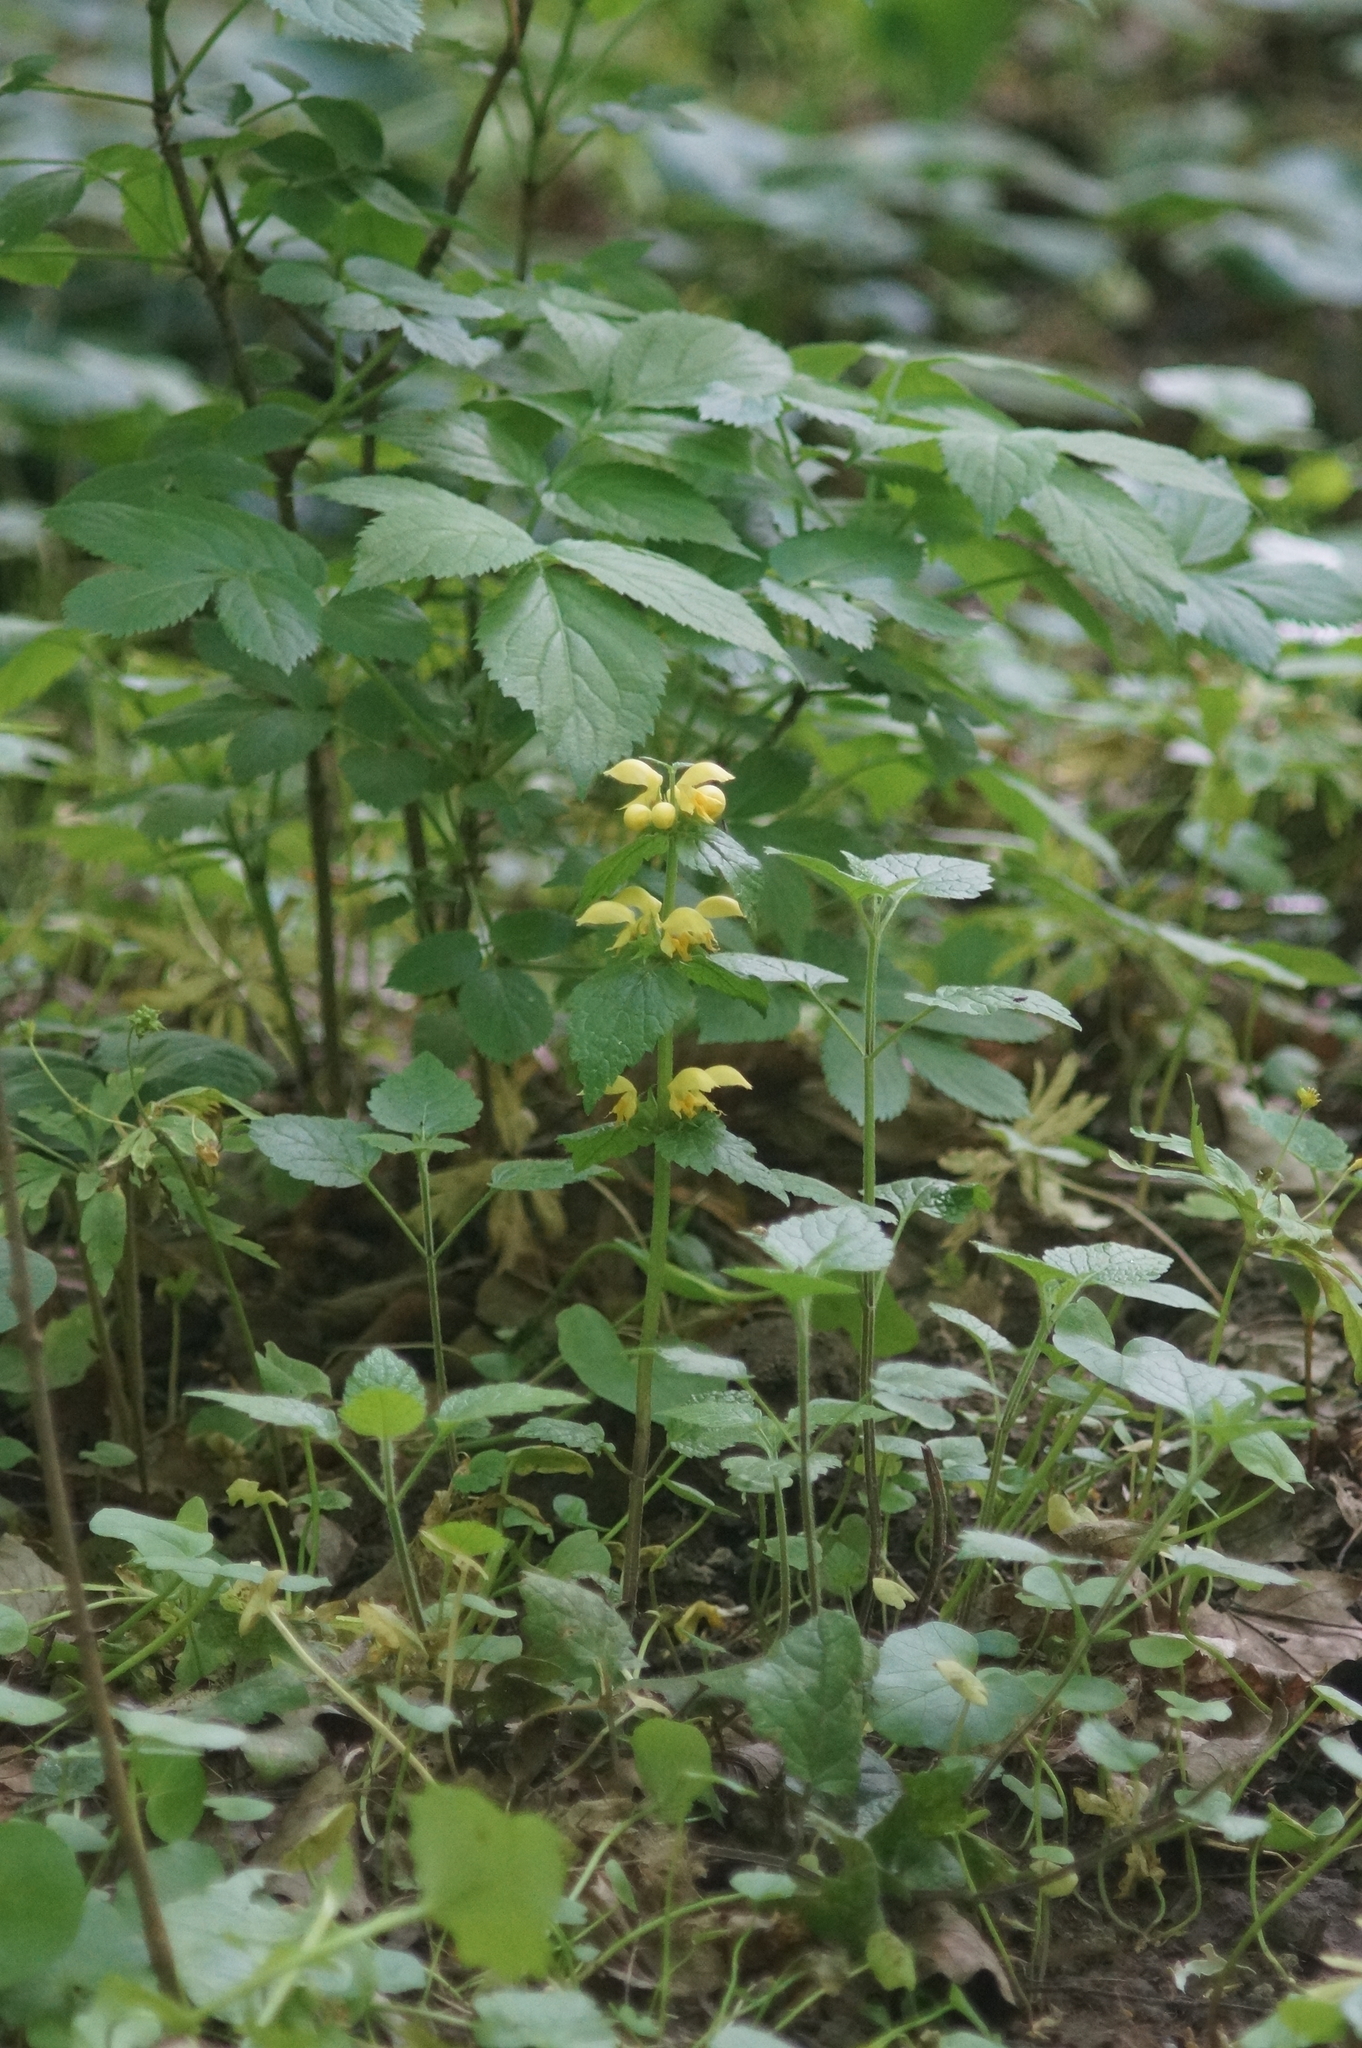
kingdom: Plantae
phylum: Tracheophyta
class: Magnoliopsida
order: Lamiales
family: Lamiaceae
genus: Lamium
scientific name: Lamium galeobdolon
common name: Yellow archangel
